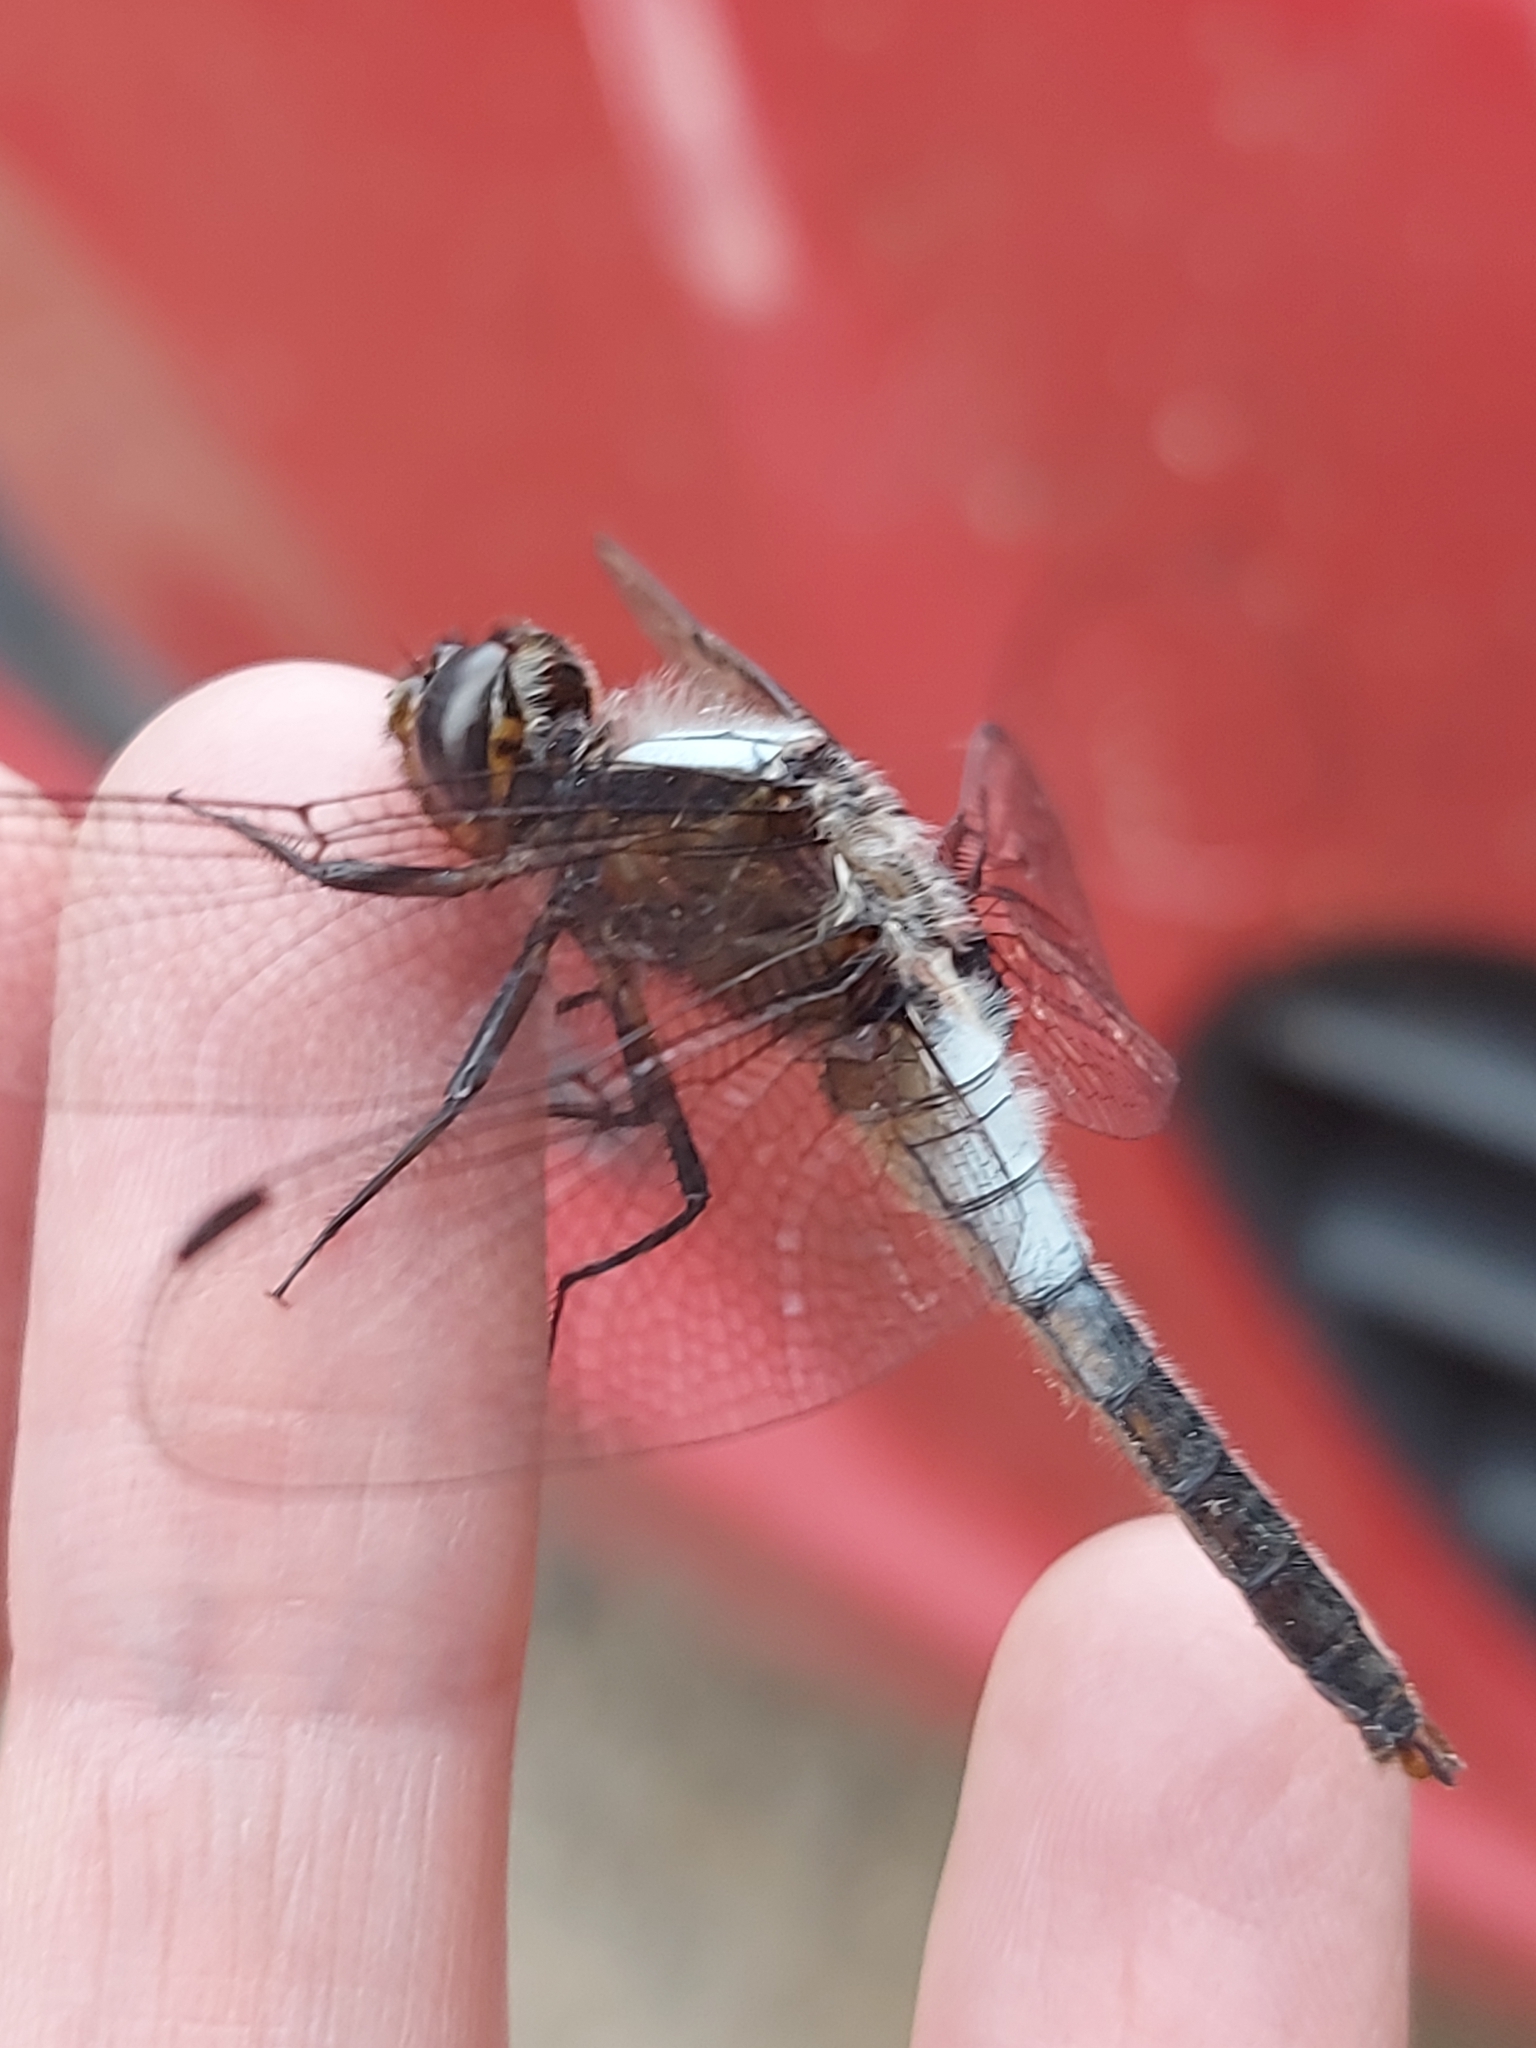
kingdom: Animalia
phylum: Arthropoda
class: Insecta
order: Odonata
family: Libellulidae
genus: Ladona
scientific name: Ladona julia
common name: Chalk-fronted corporal
